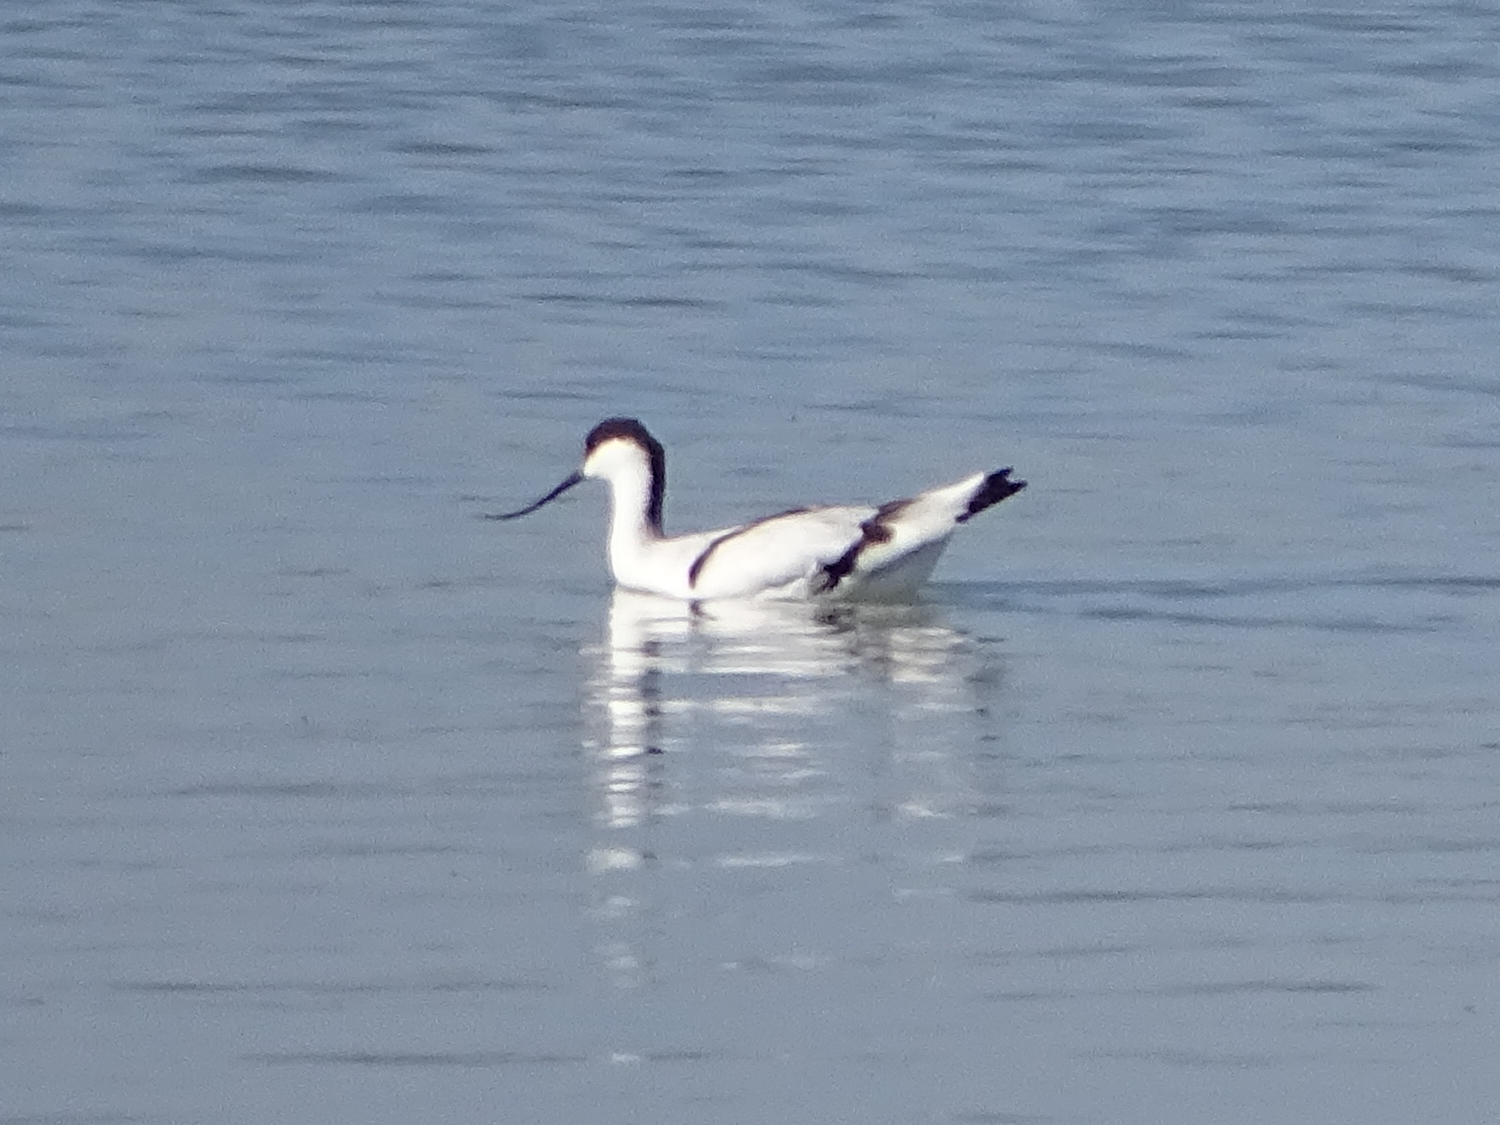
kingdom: Animalia
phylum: Chordata
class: Aves
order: Charadriiformes
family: Recurvirostridae
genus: Recurvirostra
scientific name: Recurvirostra avosetta
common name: Pied avocet
